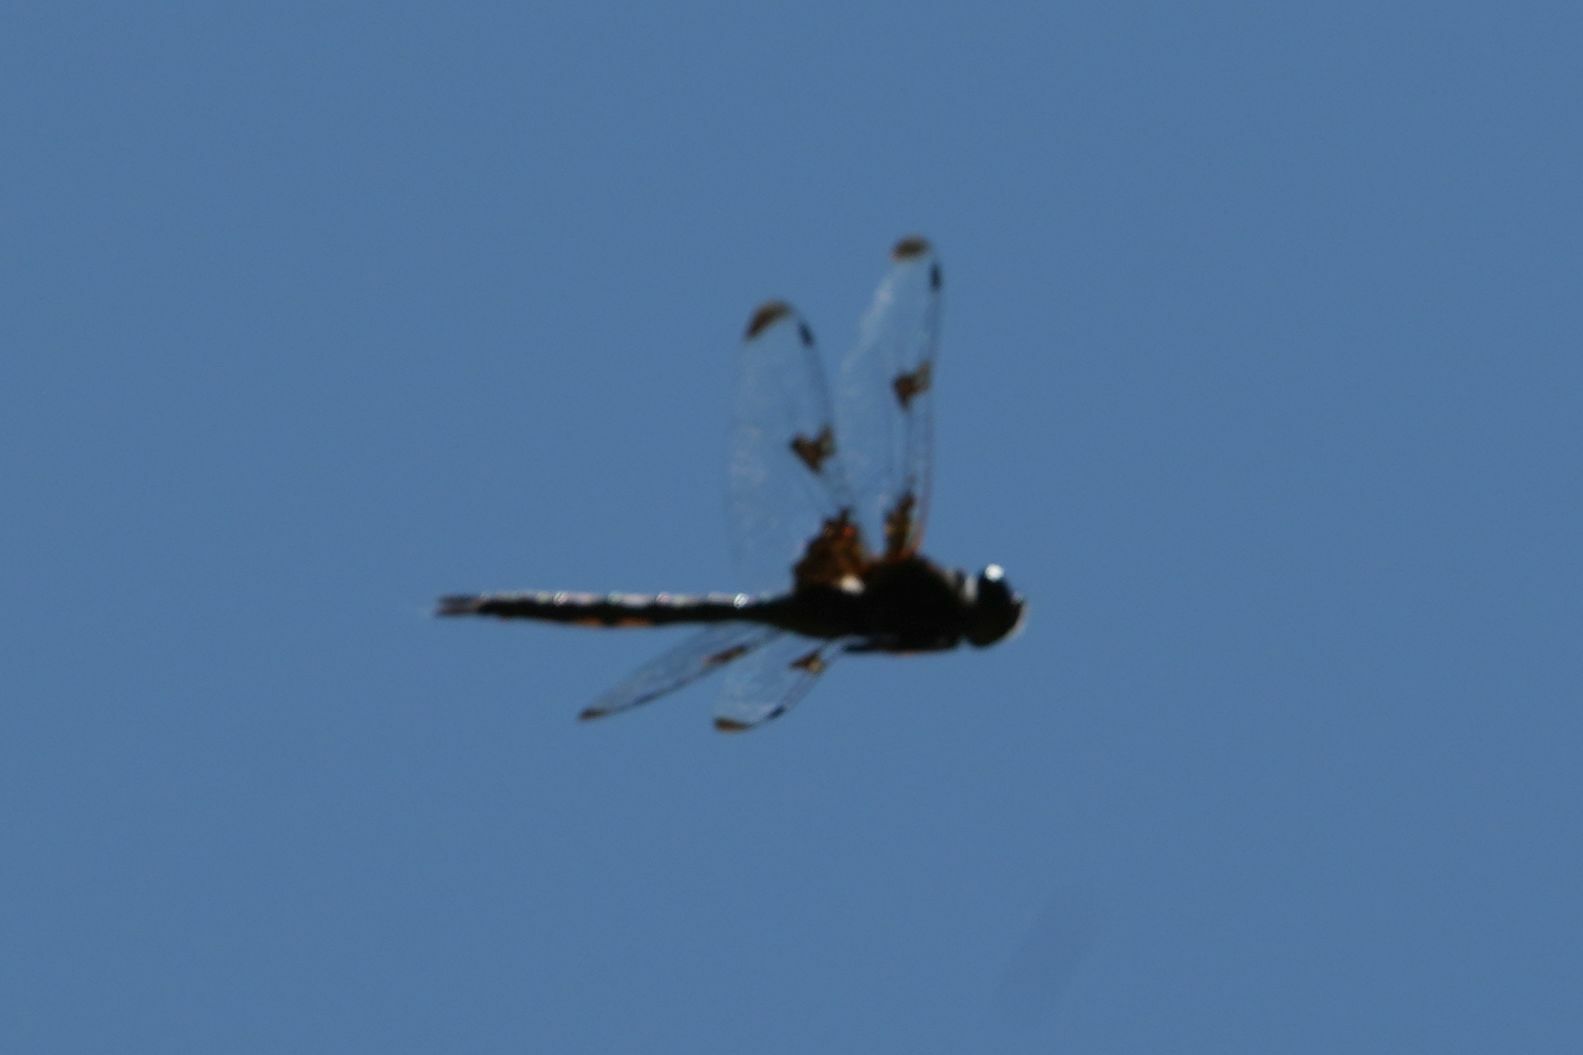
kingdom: Animalia
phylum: Arthropoda
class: Insecta
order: Odonata
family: Corduliidae
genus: Epitheca
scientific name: Epitheca princeps
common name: Prince baskettail
